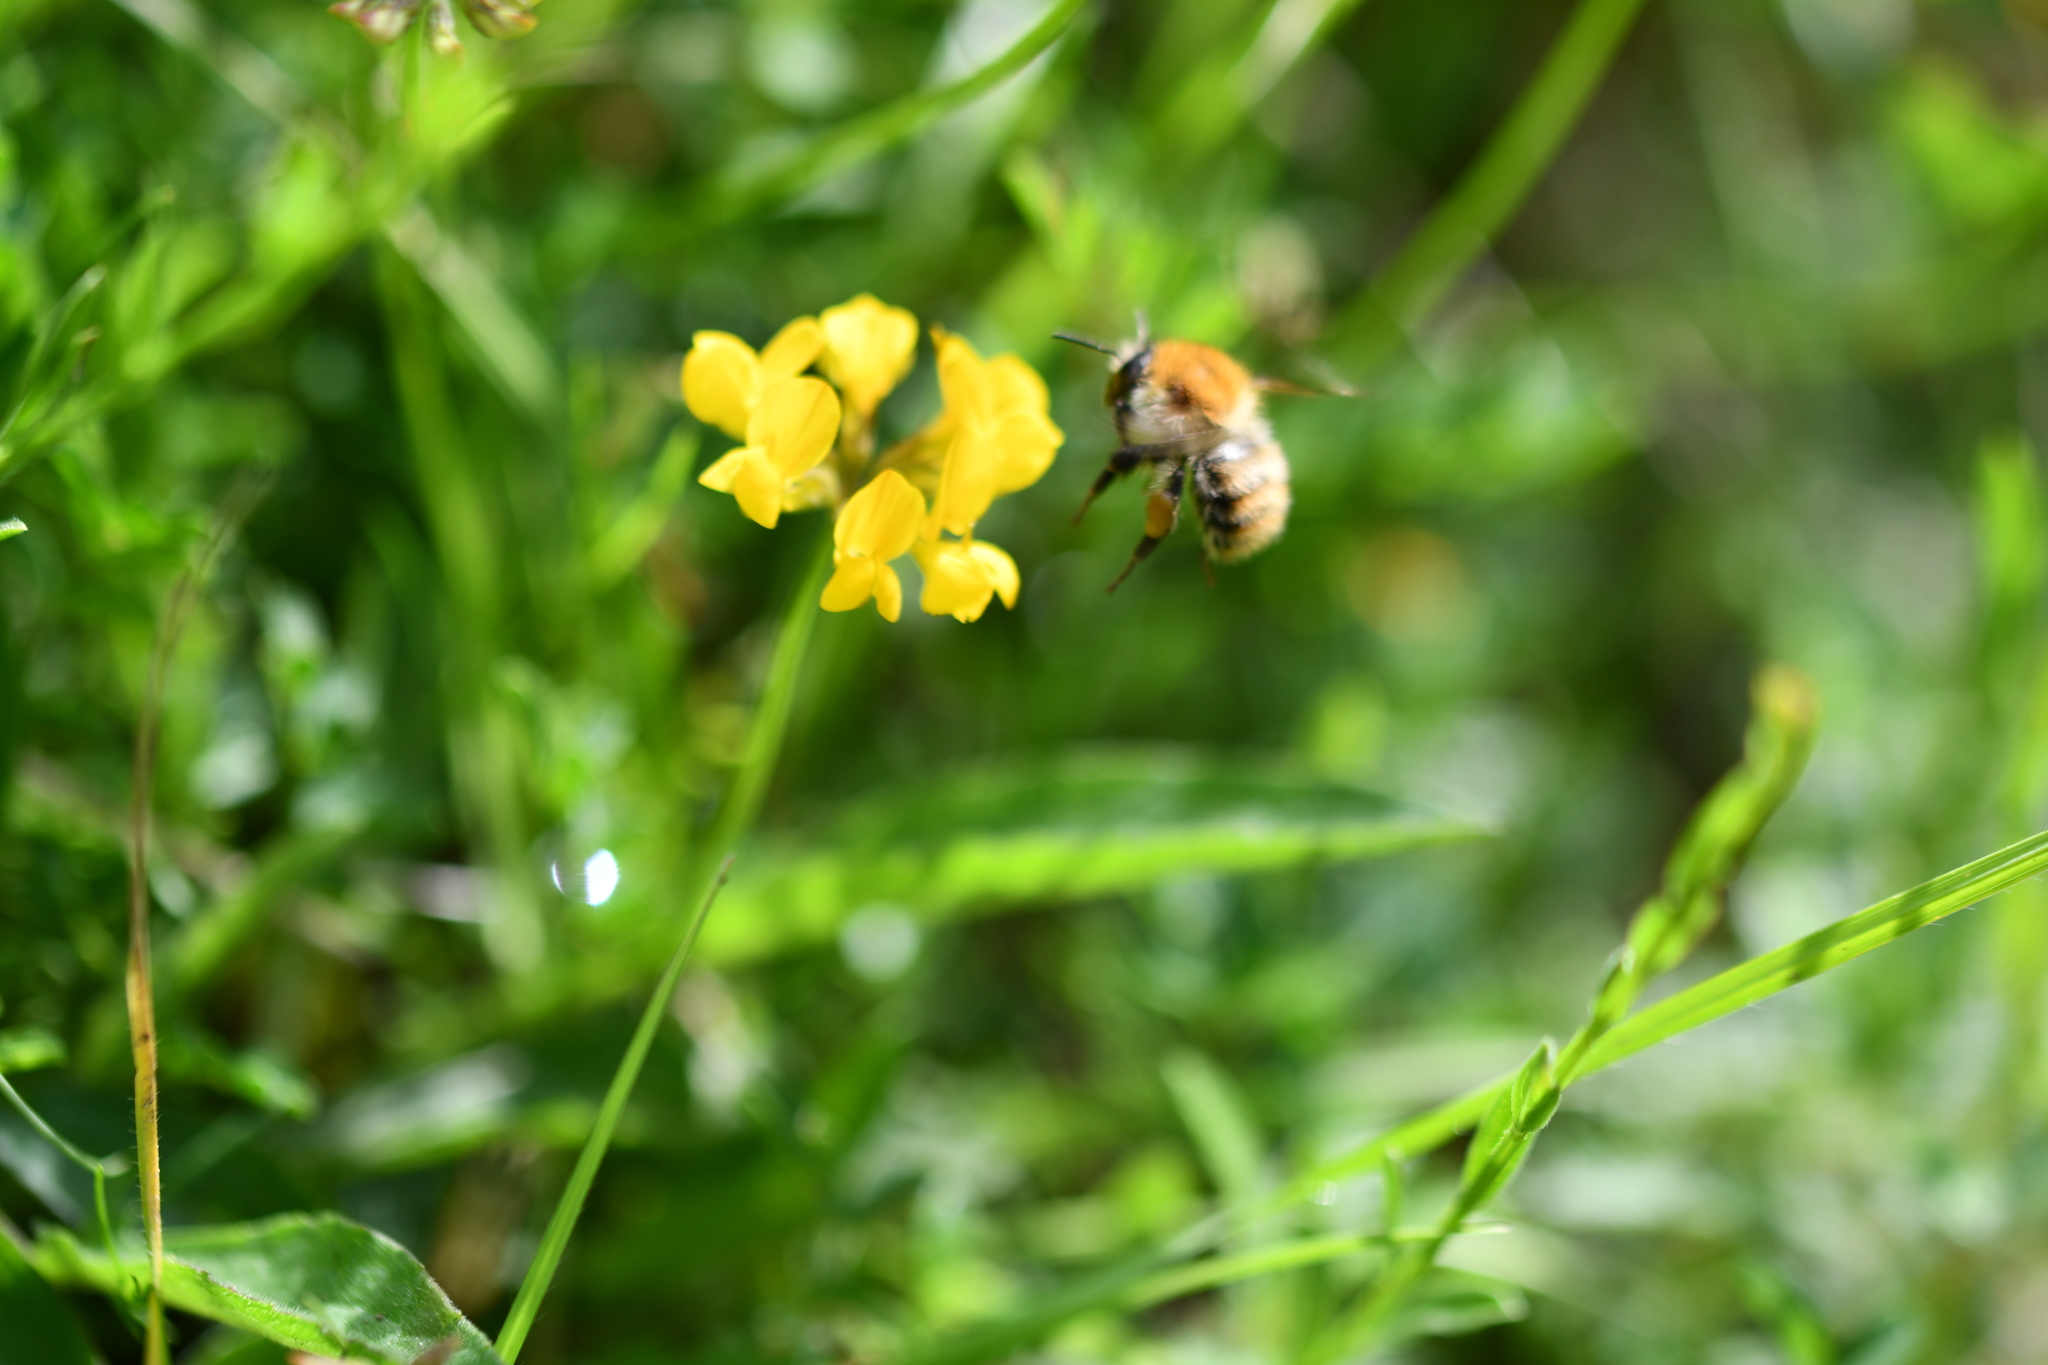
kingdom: Animalia
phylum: Arthropoda
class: Insecta
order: Hymenoptera
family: Apidae
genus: Bombus
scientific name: Bombus pascuorum
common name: Common carder bee
